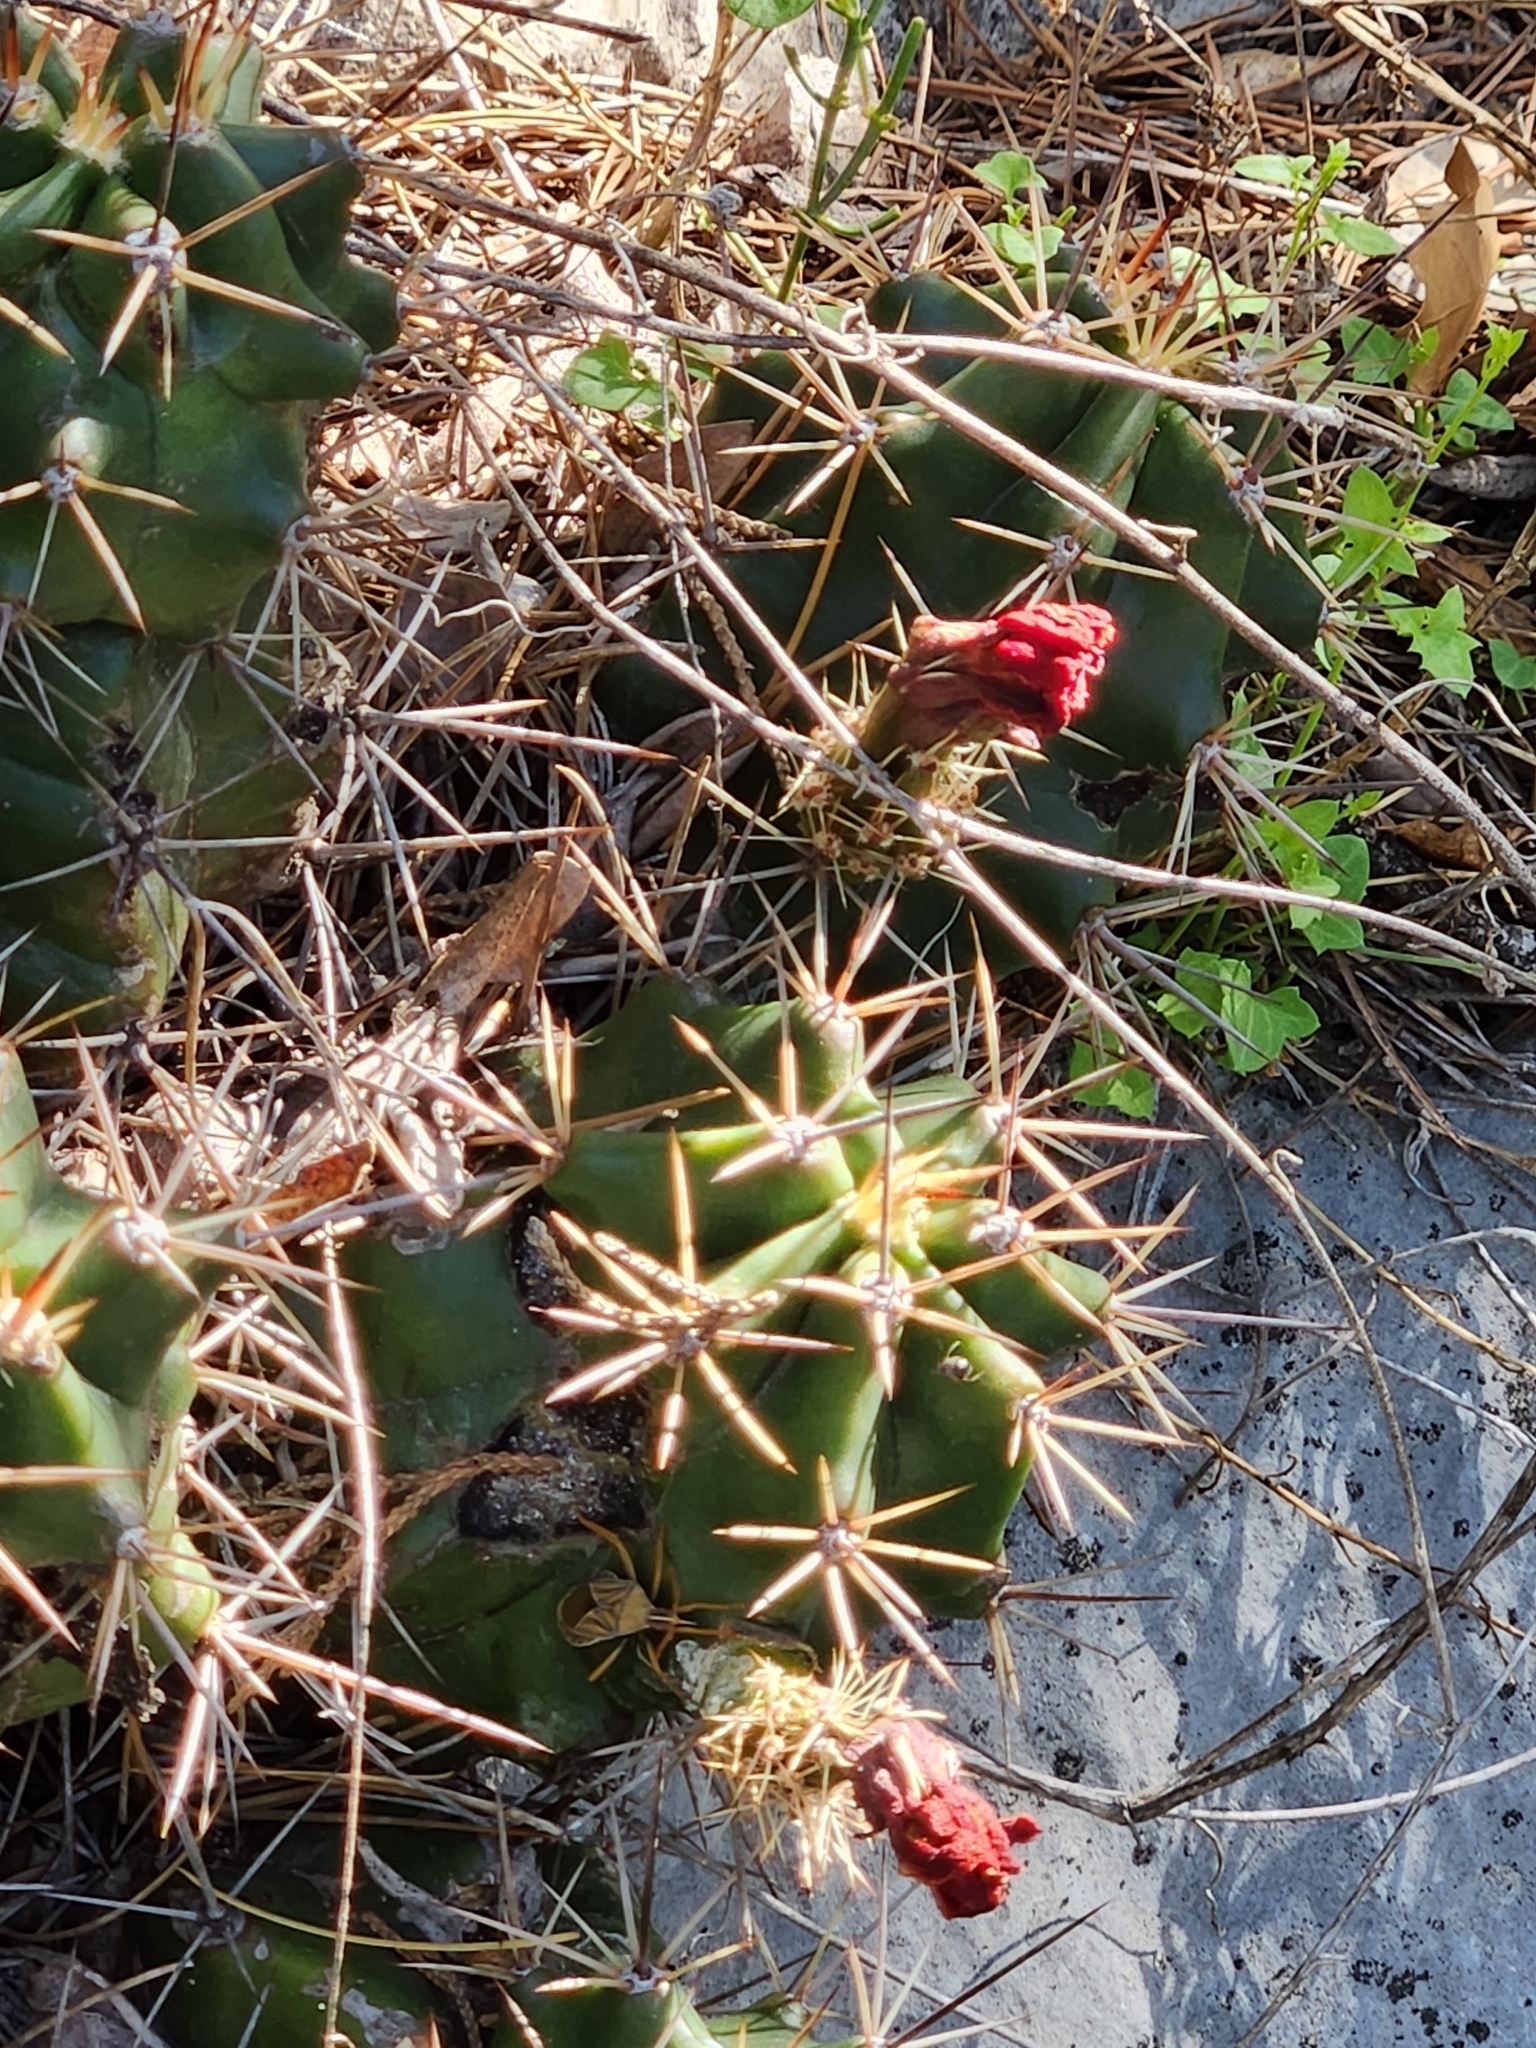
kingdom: Plantae
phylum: Tracheophyta
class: Magnoliopsida
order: Caryophyllales
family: Cactaceae
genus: Echinocereus
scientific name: Echinocereus coccineus
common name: Scarlet hedgehog cactus
